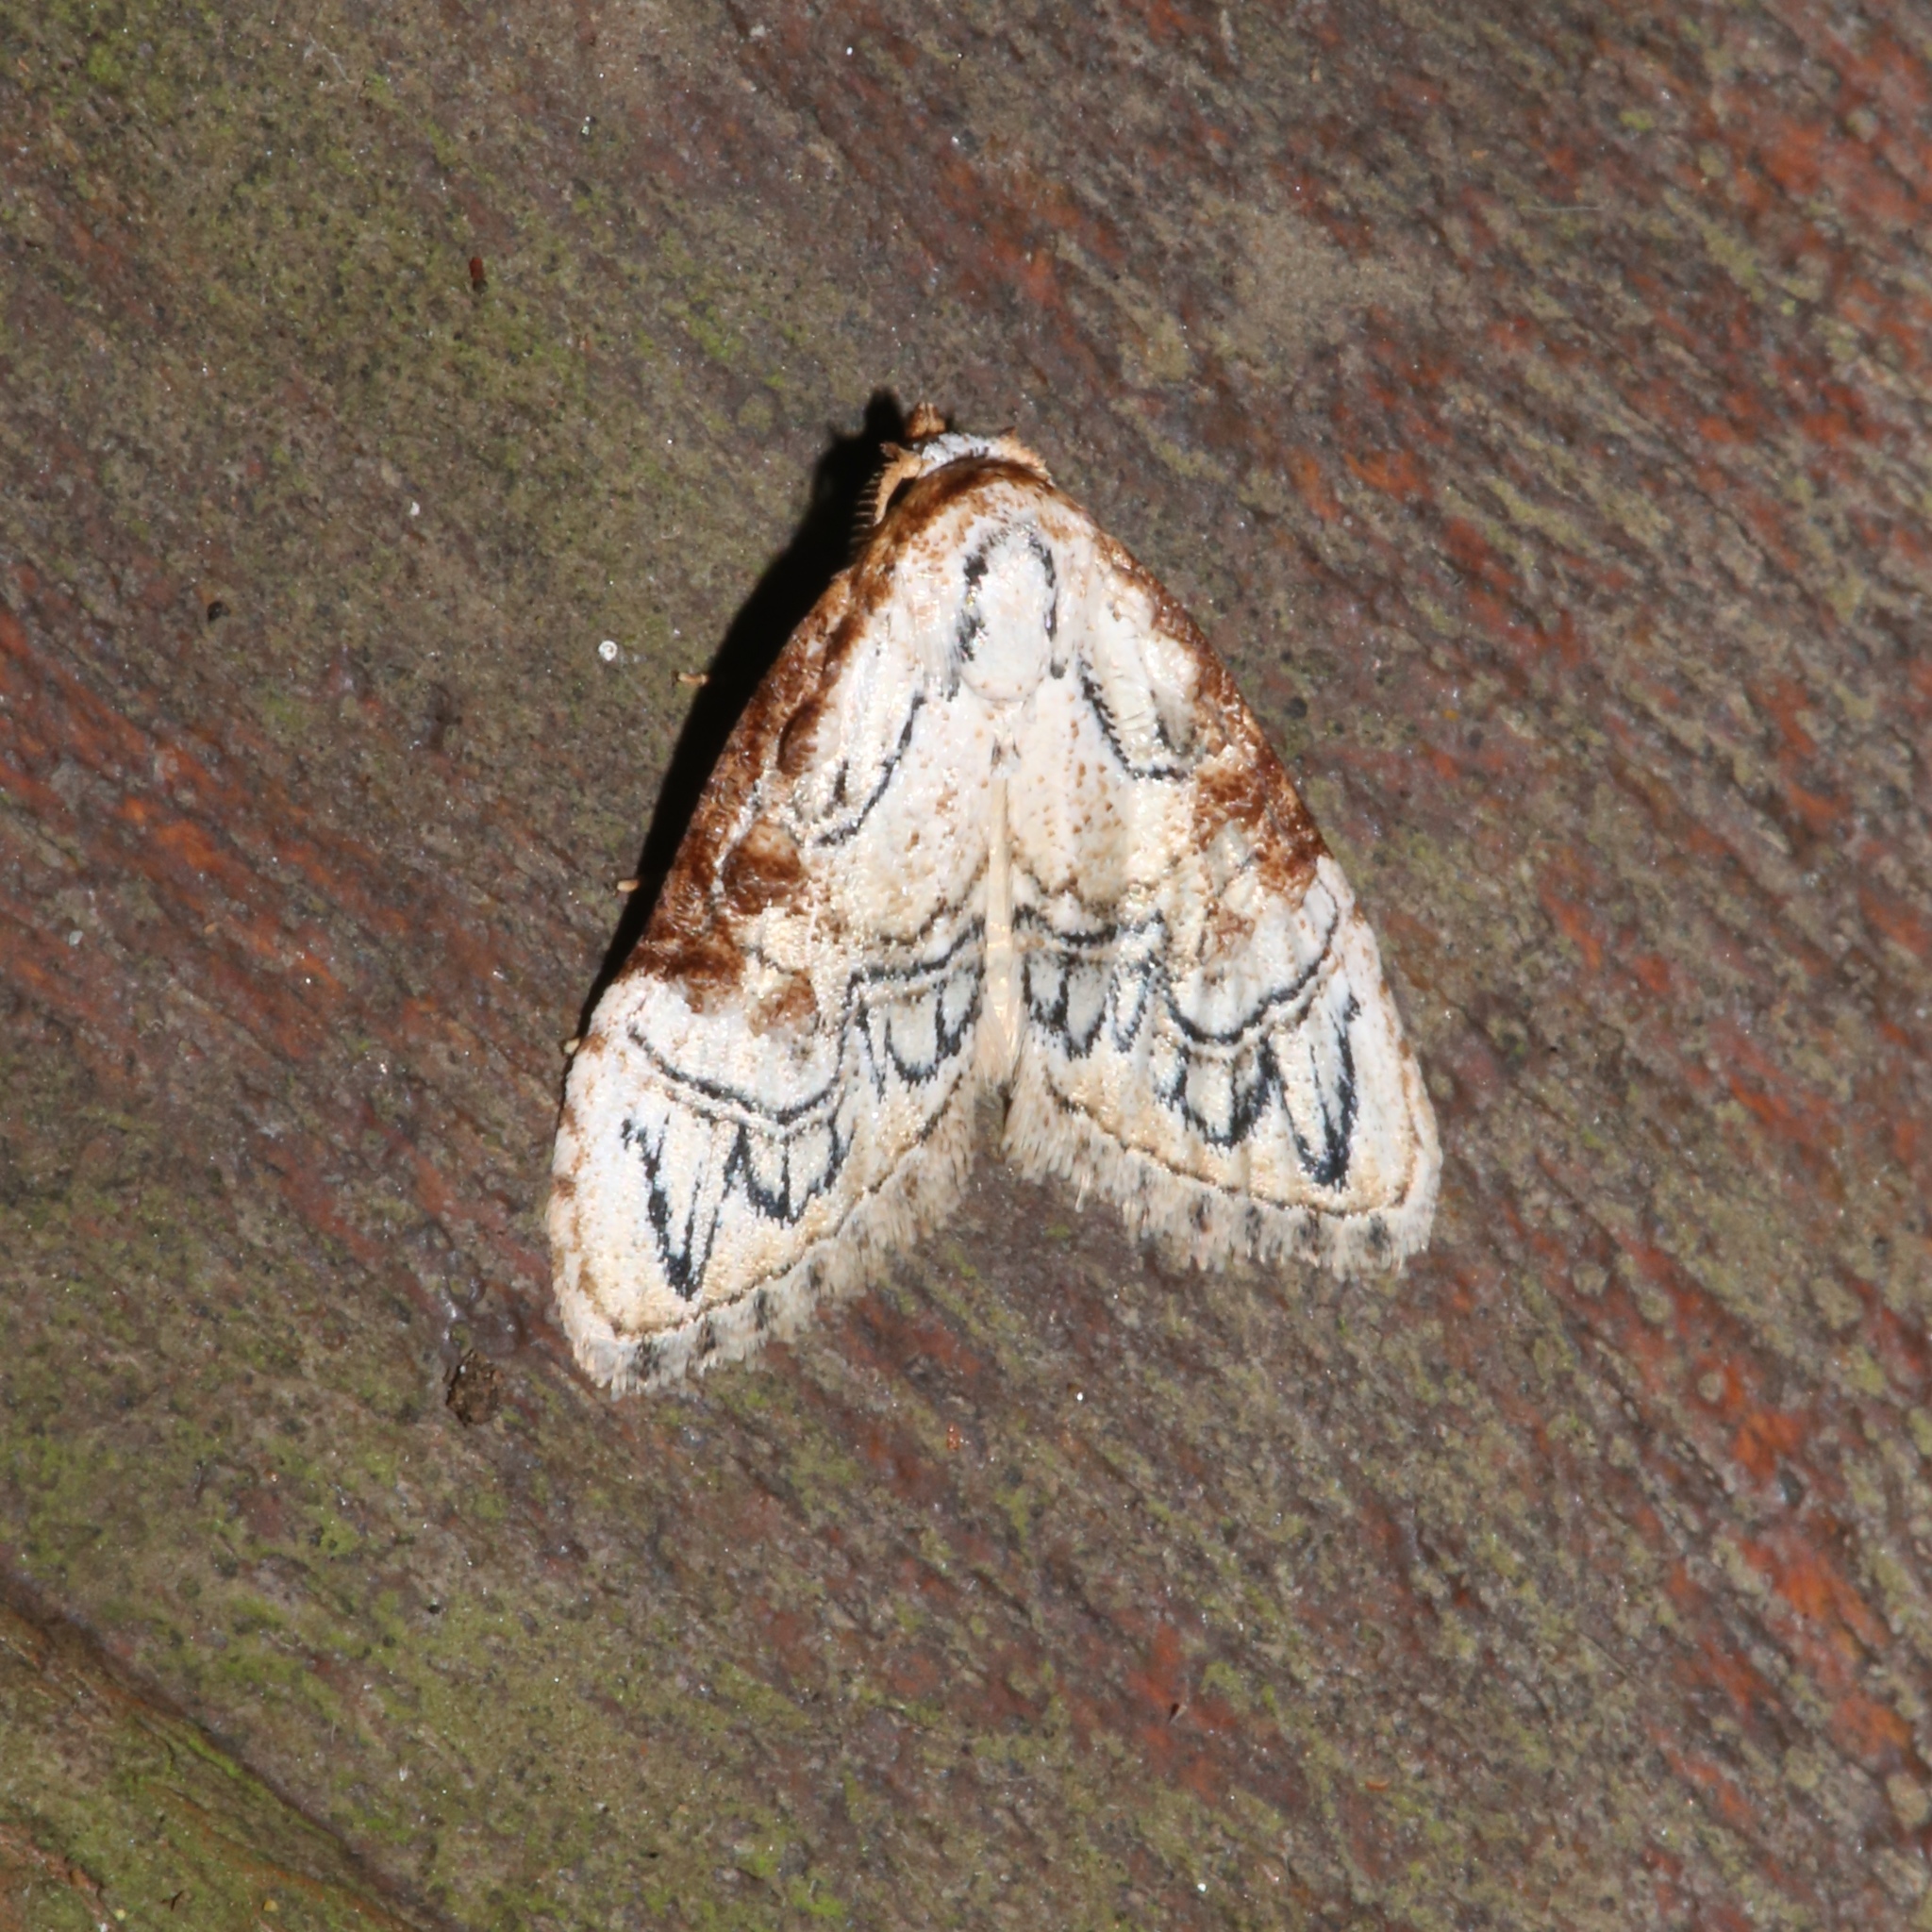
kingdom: Animalia
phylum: Arthropoda
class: Insecta
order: Lepidoptera
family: Nolidae
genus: Nola
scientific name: Nola bifiliferata
